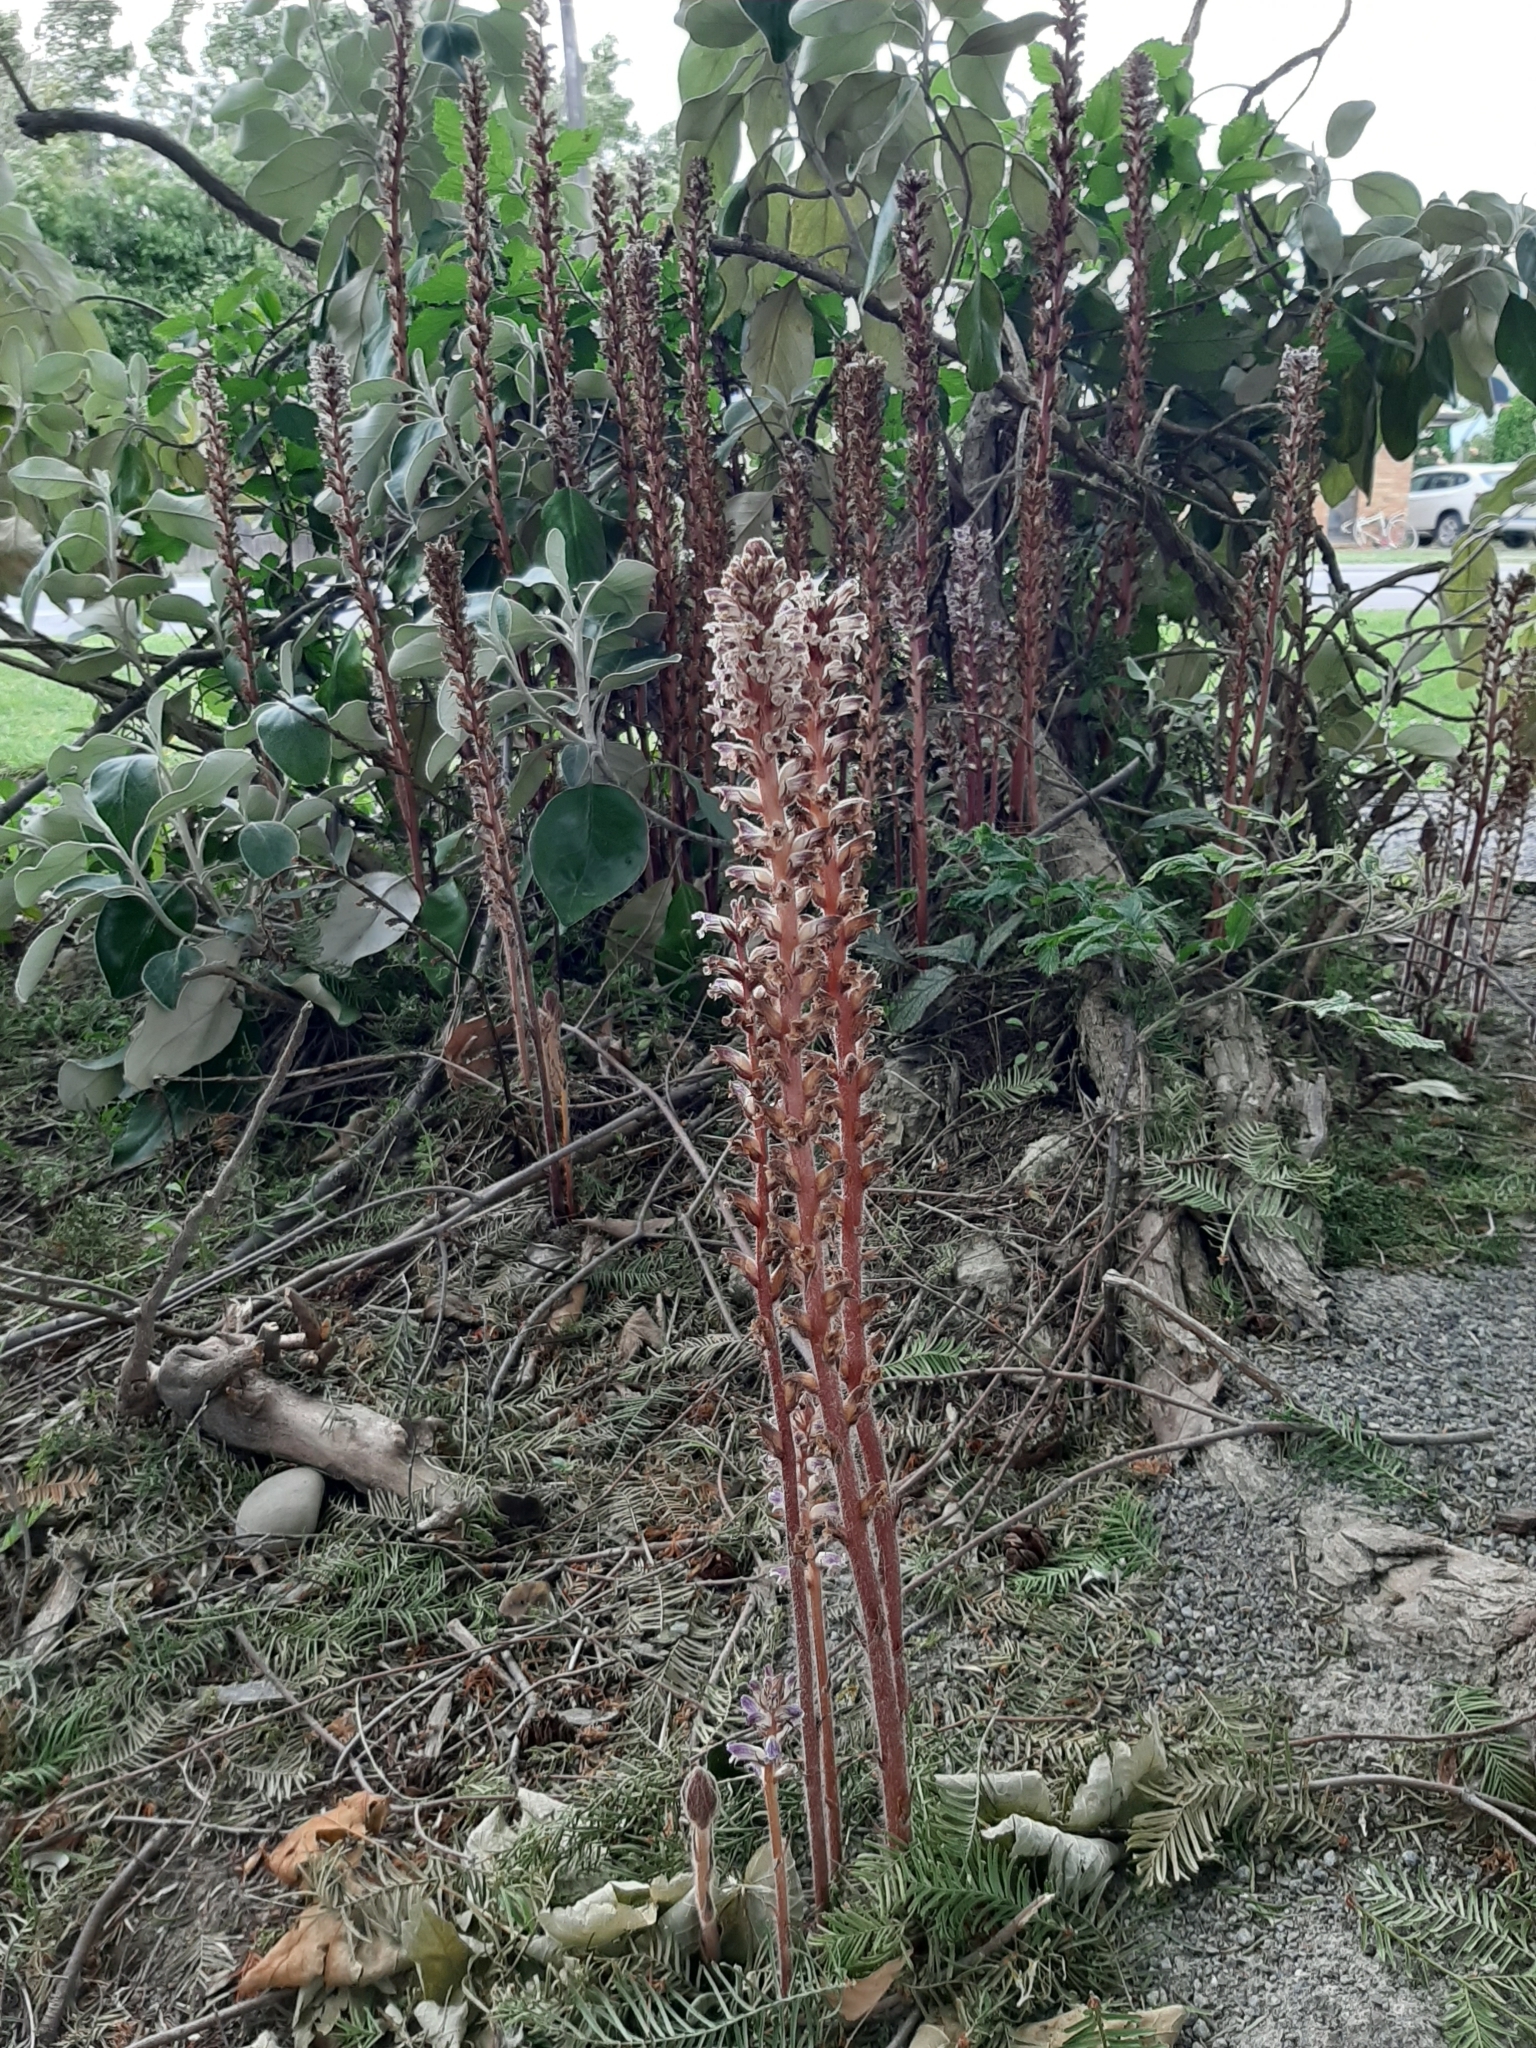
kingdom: Plantae
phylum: Tracheophyta
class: Magnoliopsida
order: Lamiales
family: Orobanchaceae
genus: Orobanche
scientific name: Orobanche minor
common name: Common broomrape
